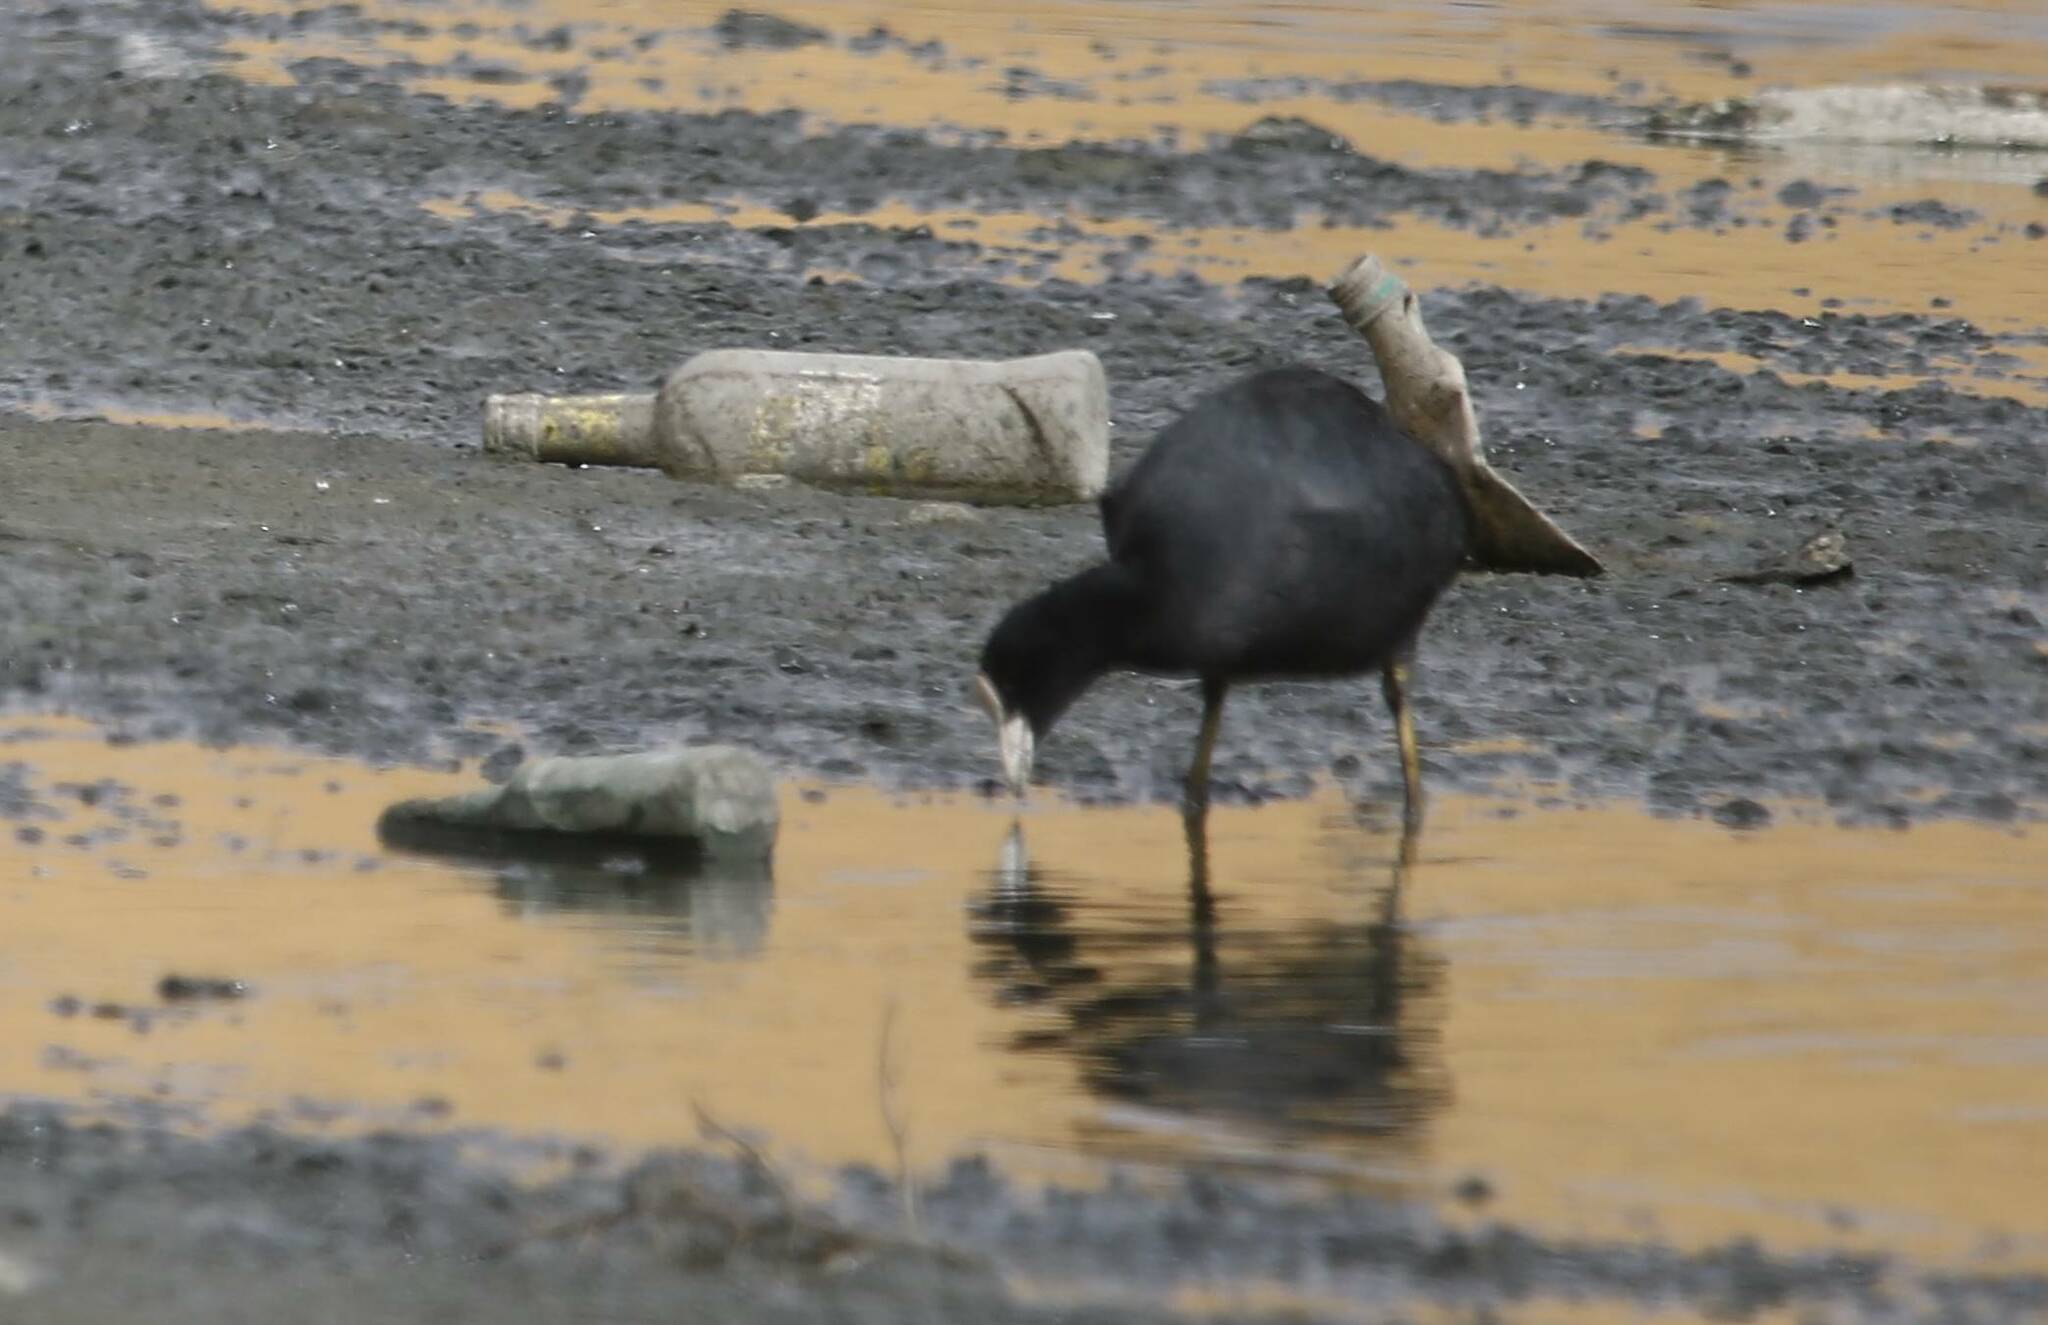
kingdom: Animalia
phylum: Chordata
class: Aves
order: Gruiformes
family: Rallidae
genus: Fulica
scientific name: Fulica atra
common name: Eurasian coot
